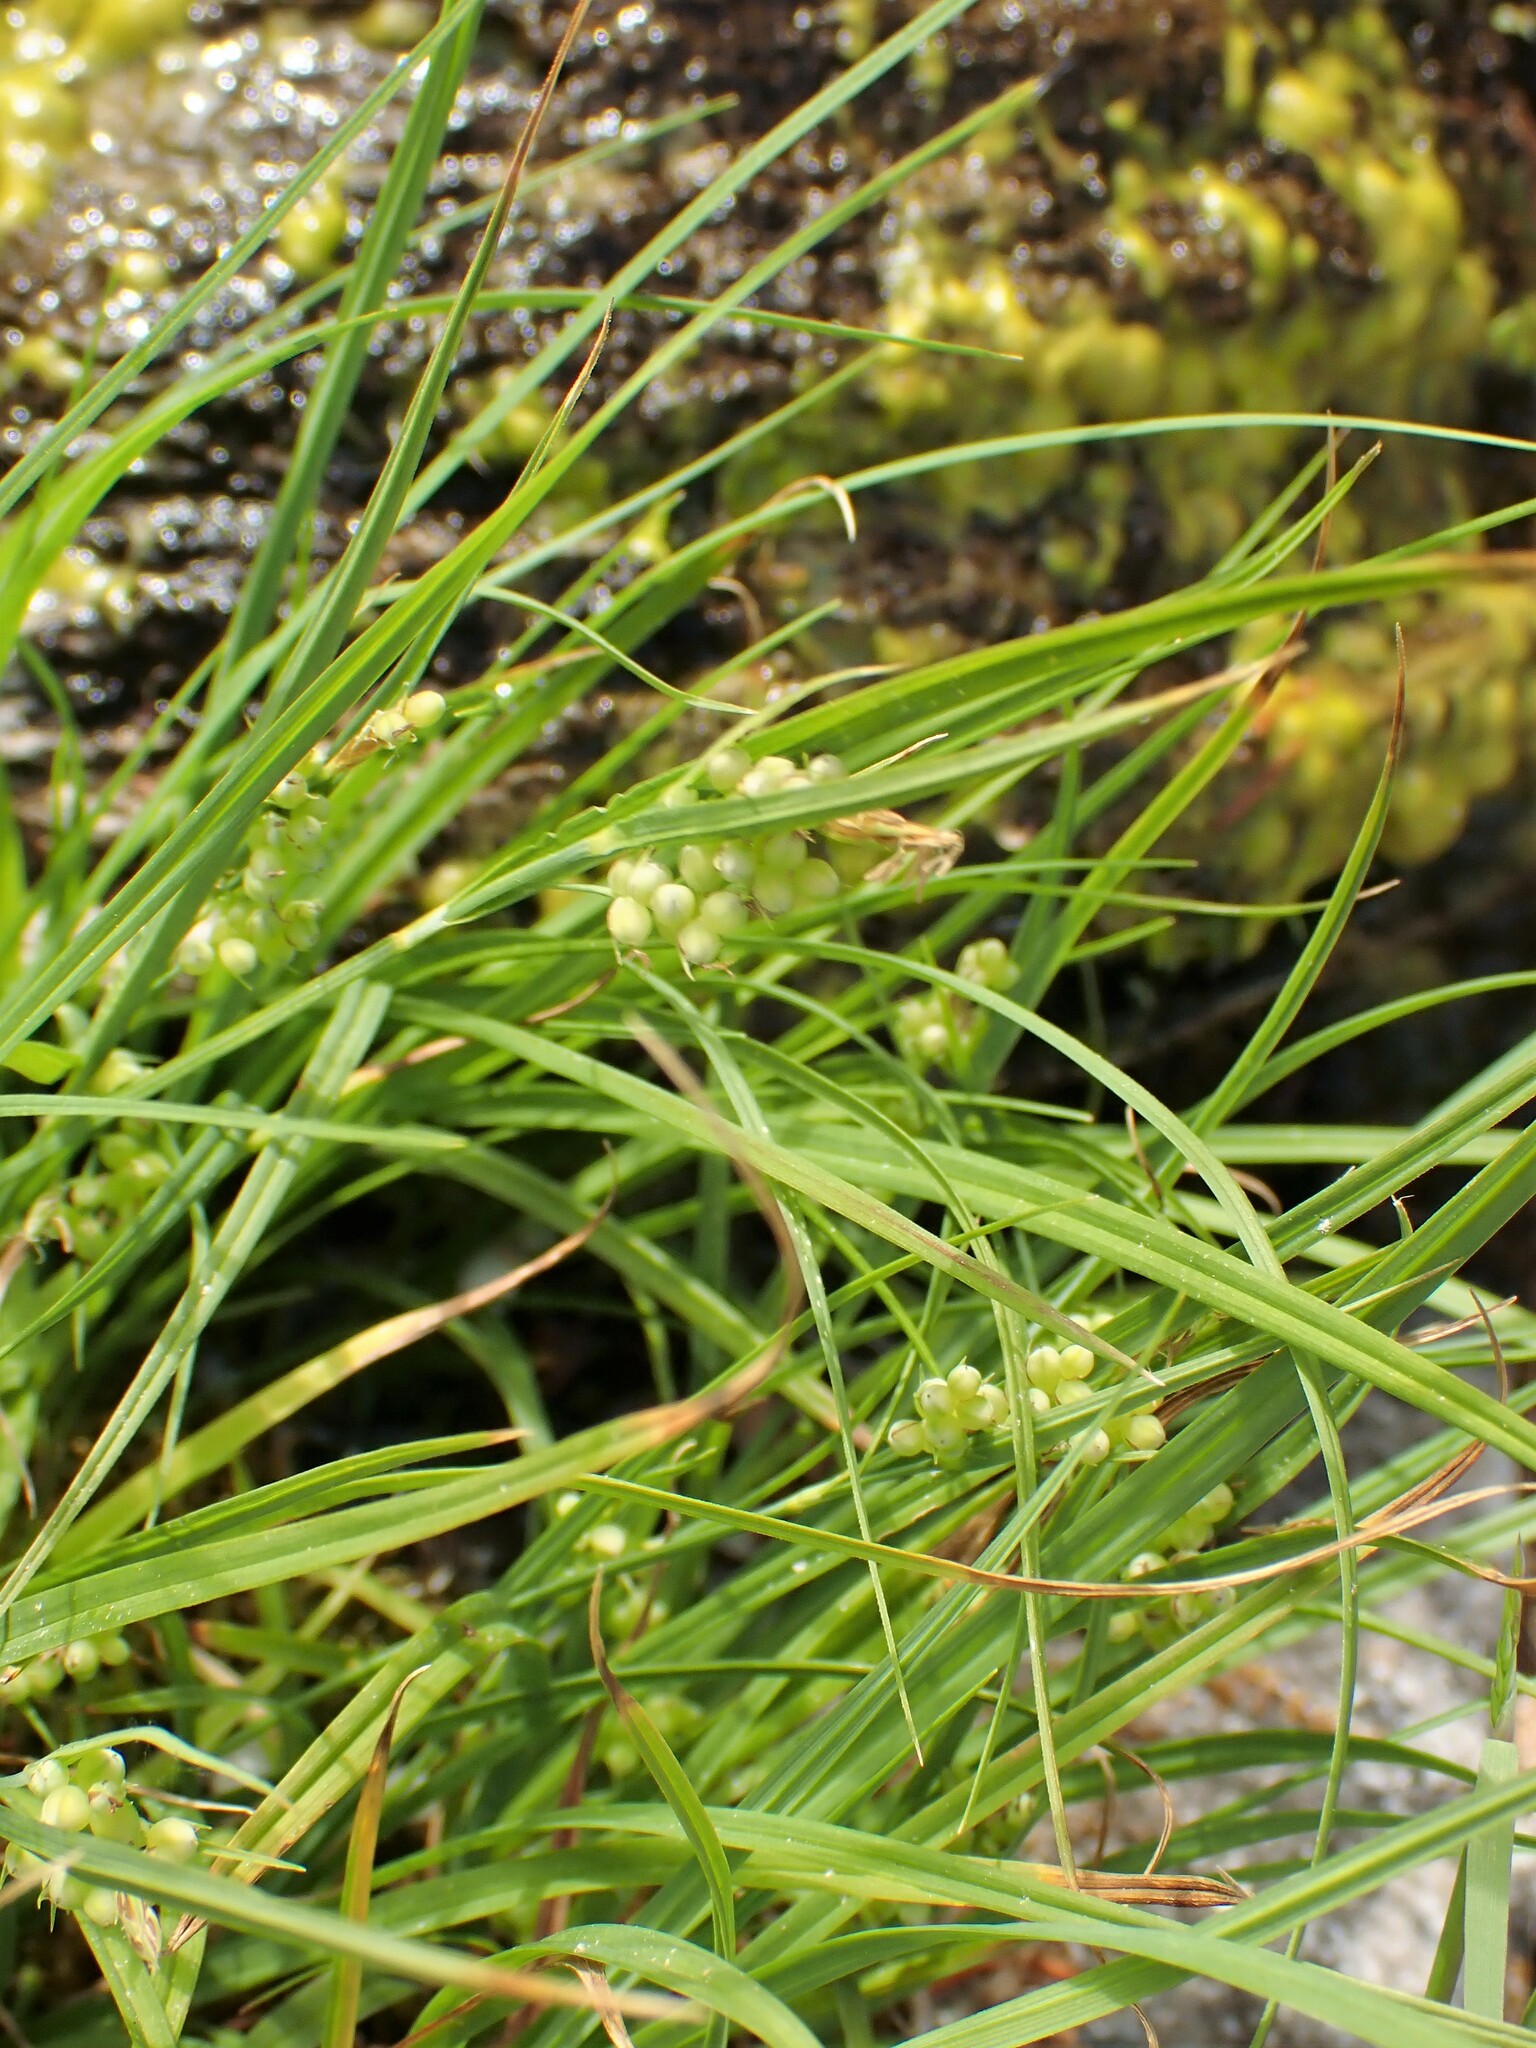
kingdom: Plantae
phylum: Tracheophyta
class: Liliopsida
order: Poales
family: Cyperaceae
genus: Carex
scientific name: Carex aurea
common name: Golden sedge
